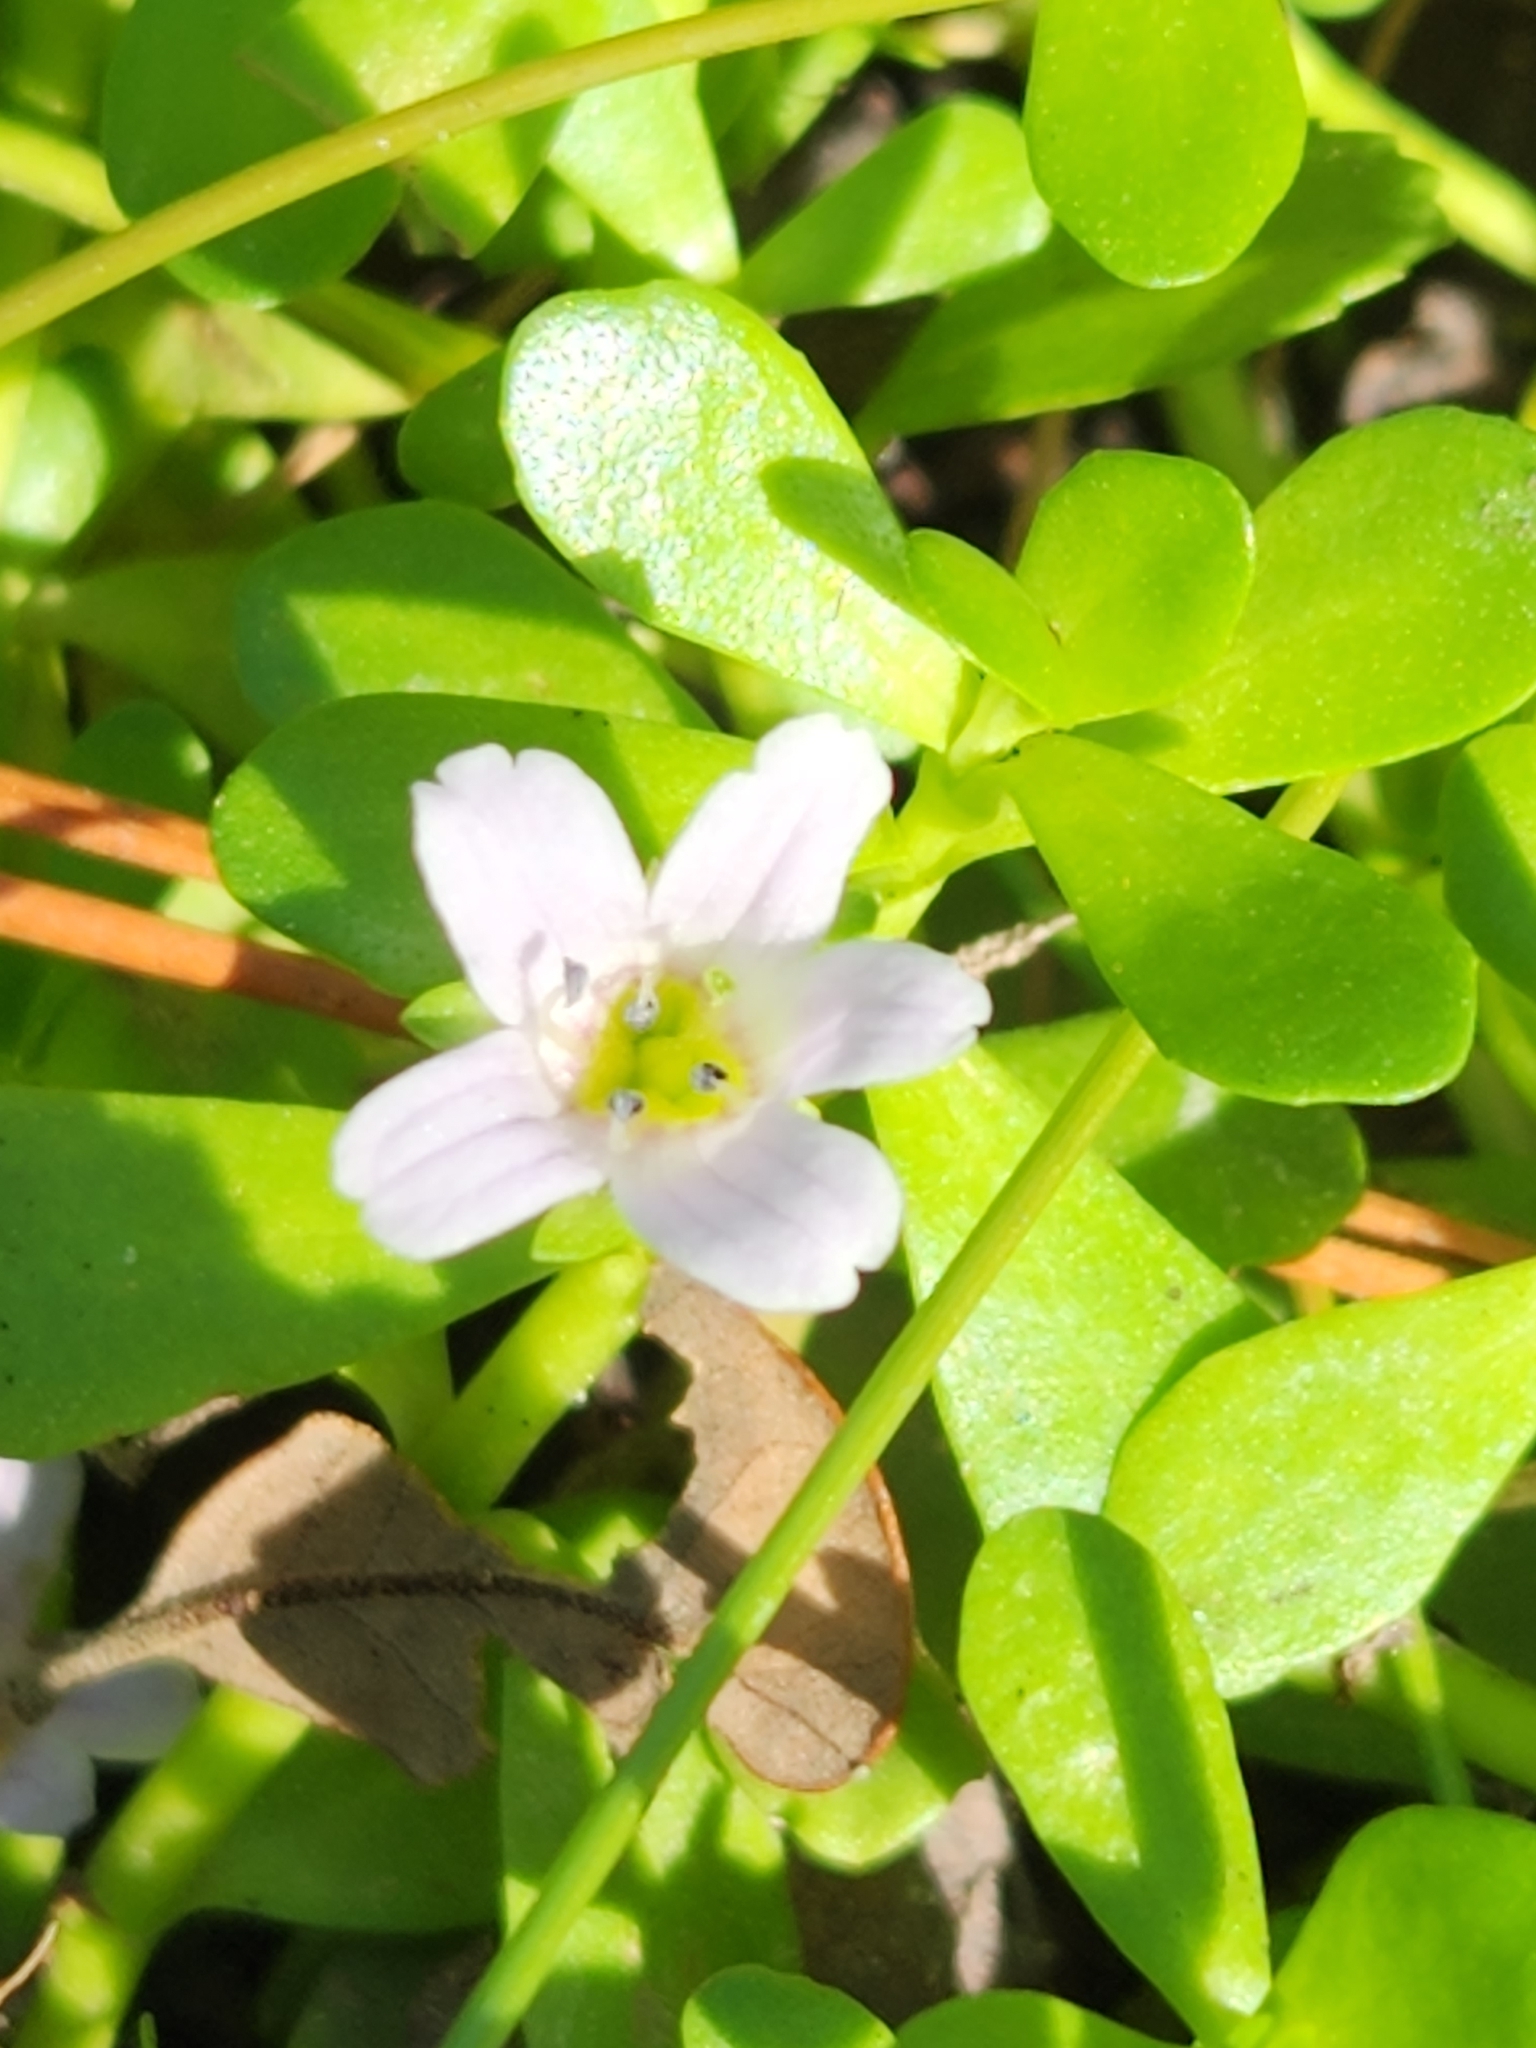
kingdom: Plantae
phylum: Tracheophyta
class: Magnoliopsida
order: Lamiales
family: Plantaginaceae
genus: Bacopa
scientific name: Bacopa monnieri
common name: Indian-pennywort
